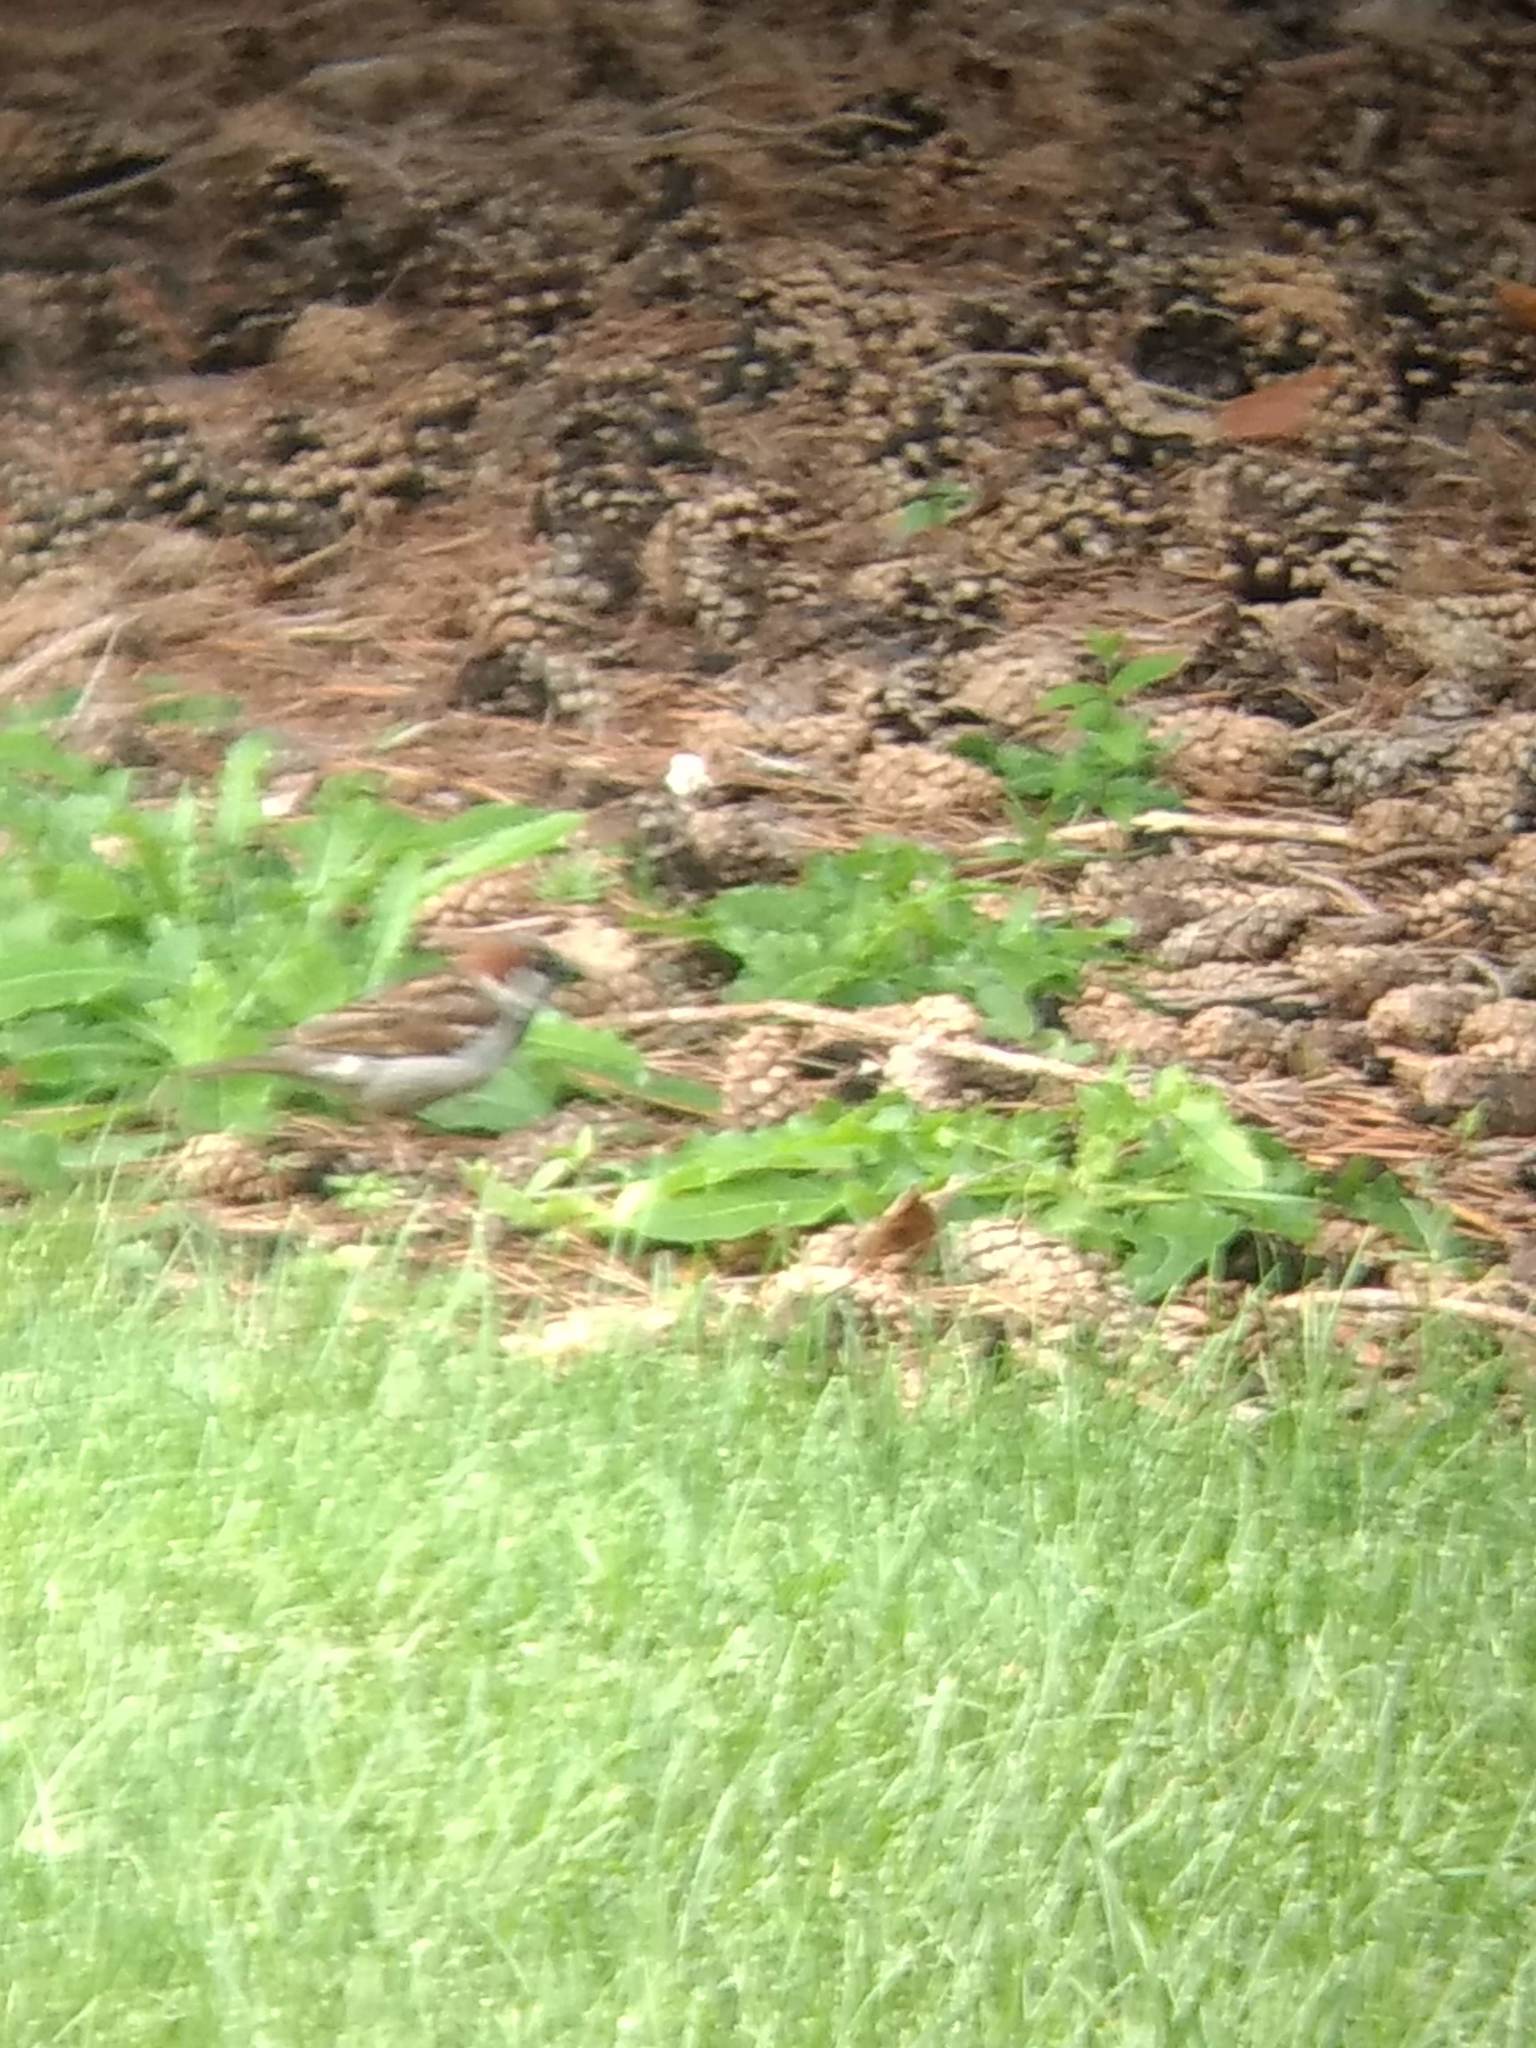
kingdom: Animalia
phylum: Chordata
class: Aves
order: Passeriformes
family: Passeridae
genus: Passer
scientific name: Passer domesticus
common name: House sparrow
